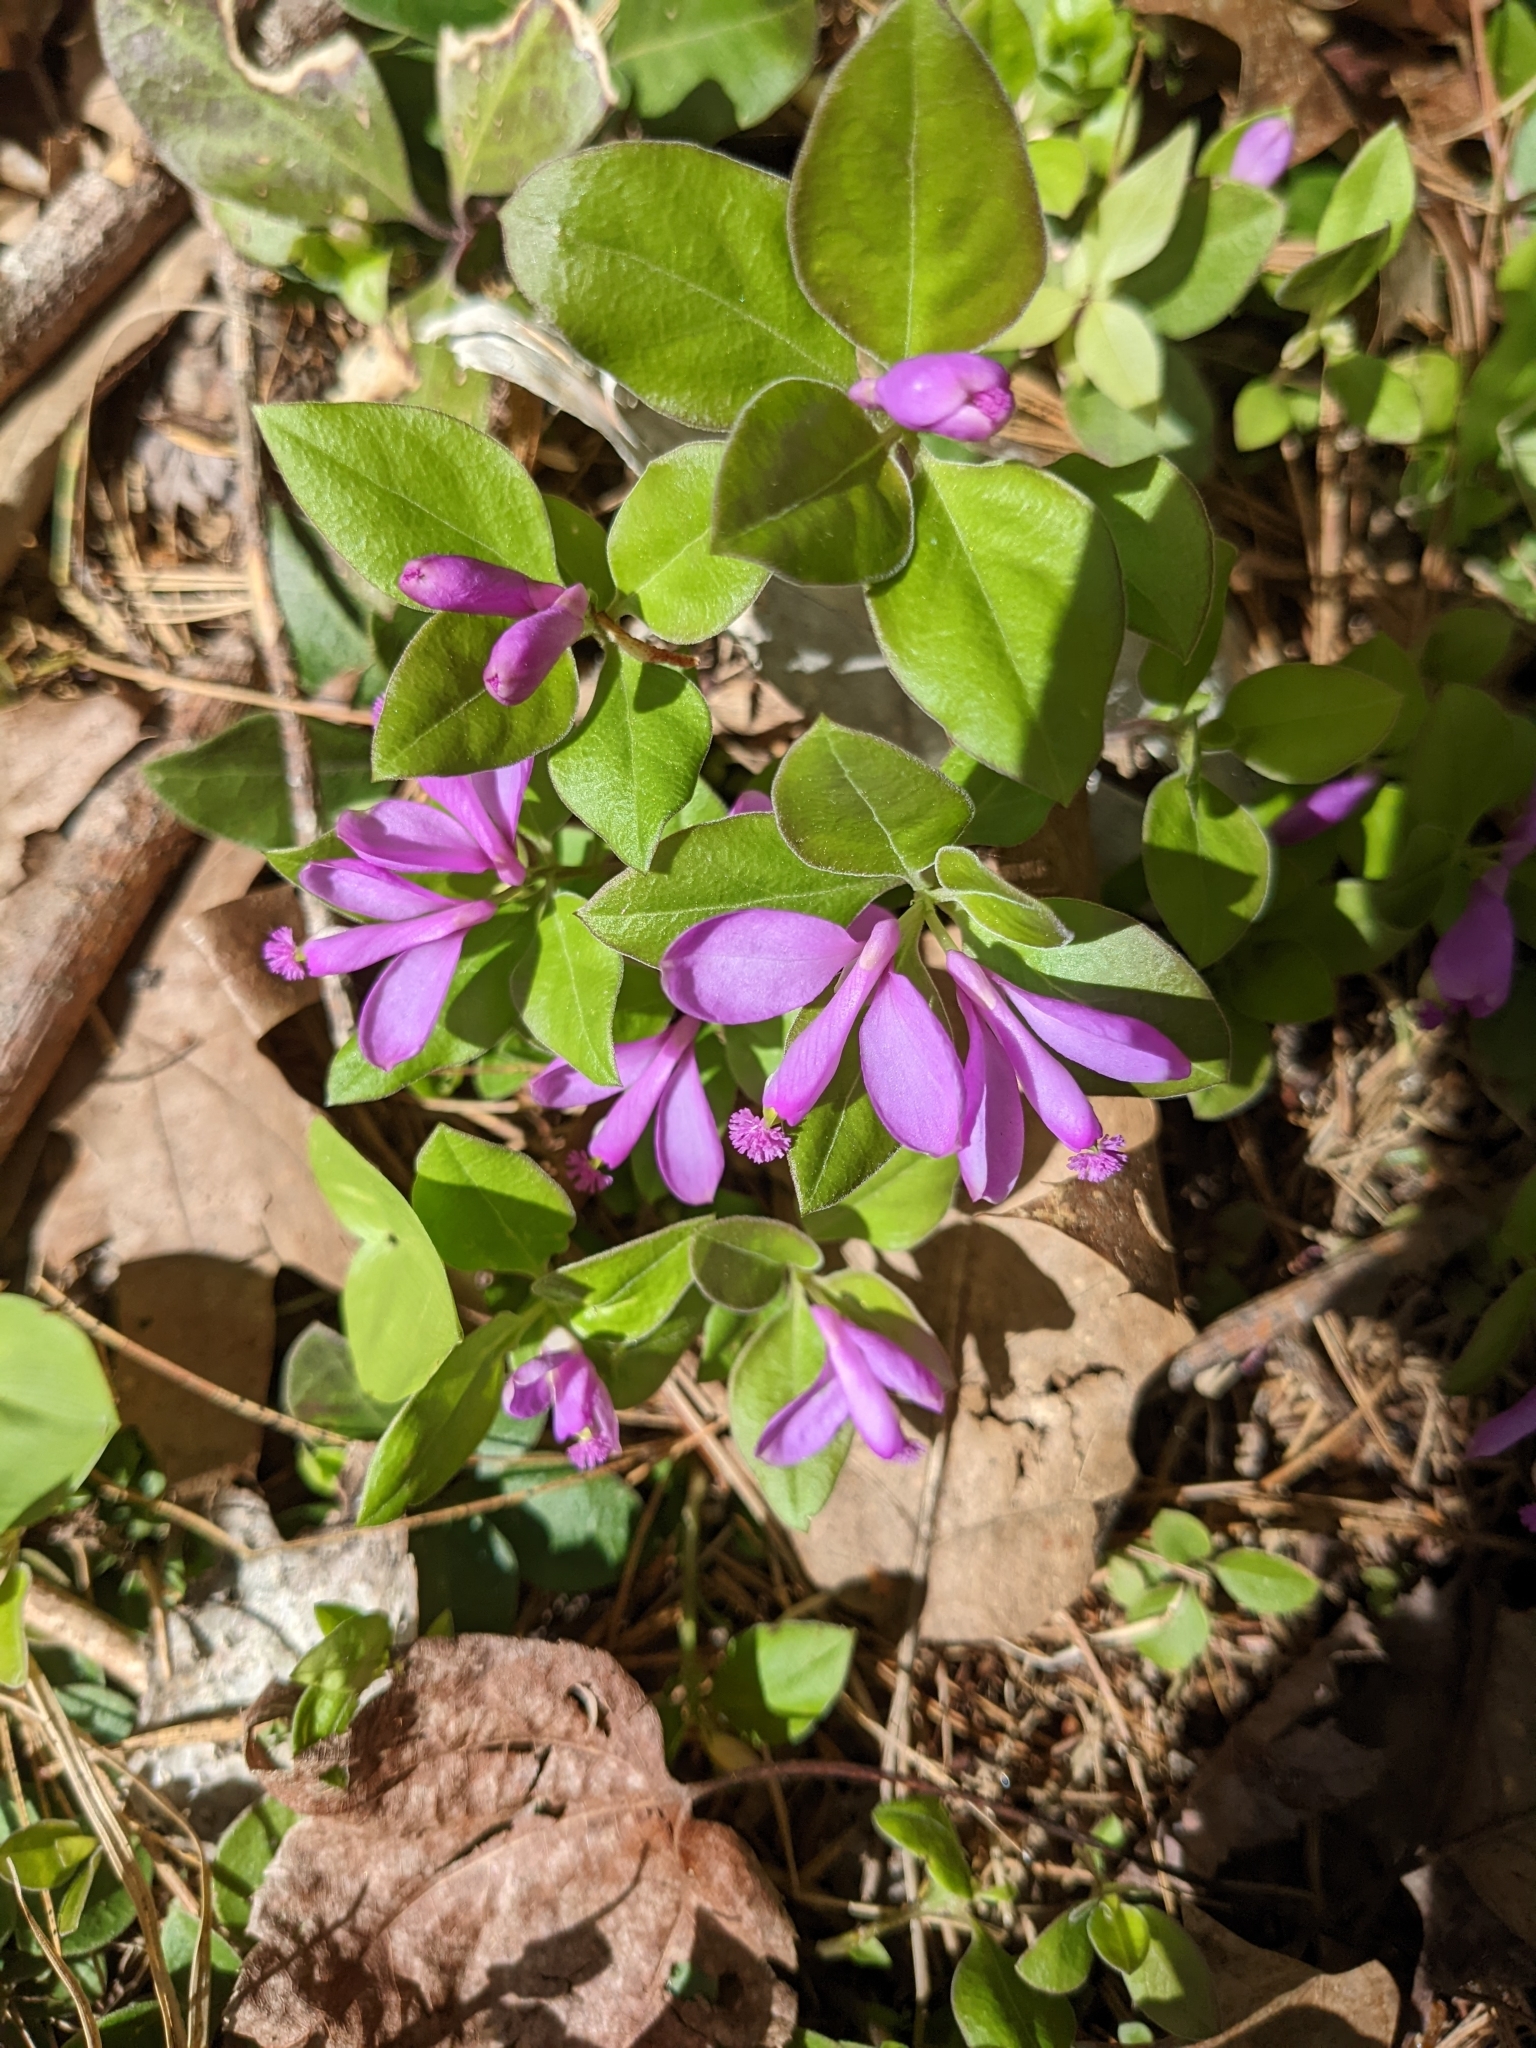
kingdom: Plantae
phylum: Tracheophyta
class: Magnoliopsida
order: Fabales
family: Polygalaceae
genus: Polygaloides
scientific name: Polygaloides paucifolia
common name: Bird-on-the-wing
